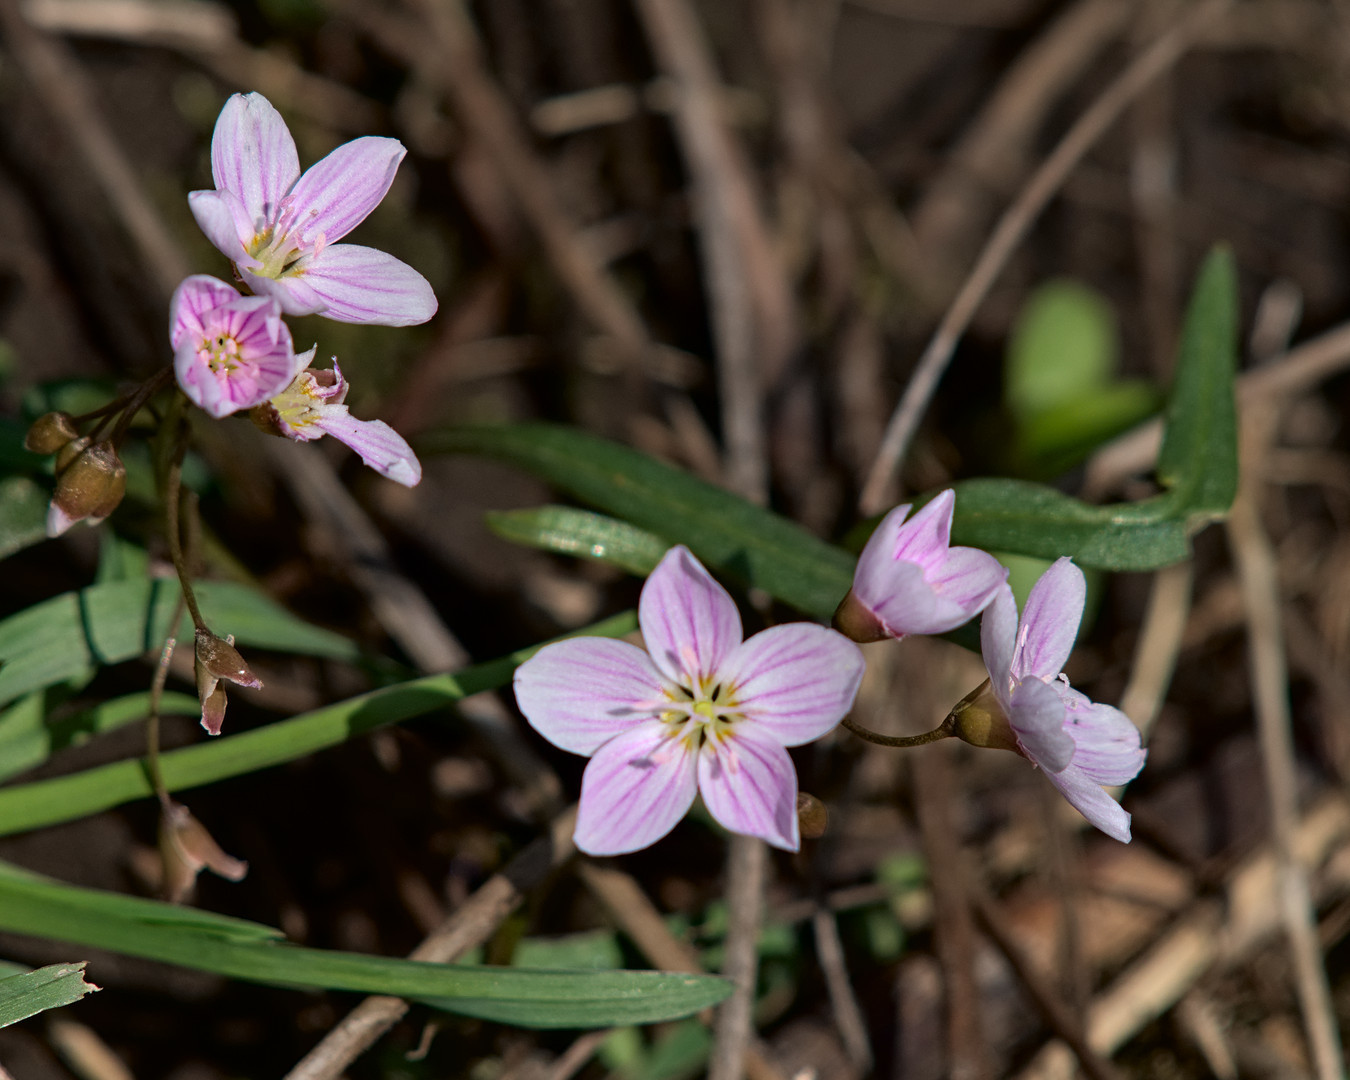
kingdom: Plantae
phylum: Tracheophyta
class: Magnoliopsida
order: Caryophyllales
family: Montiaceae
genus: Claytonia
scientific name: Claytonia caroliniana
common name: Carolina spring beauty
